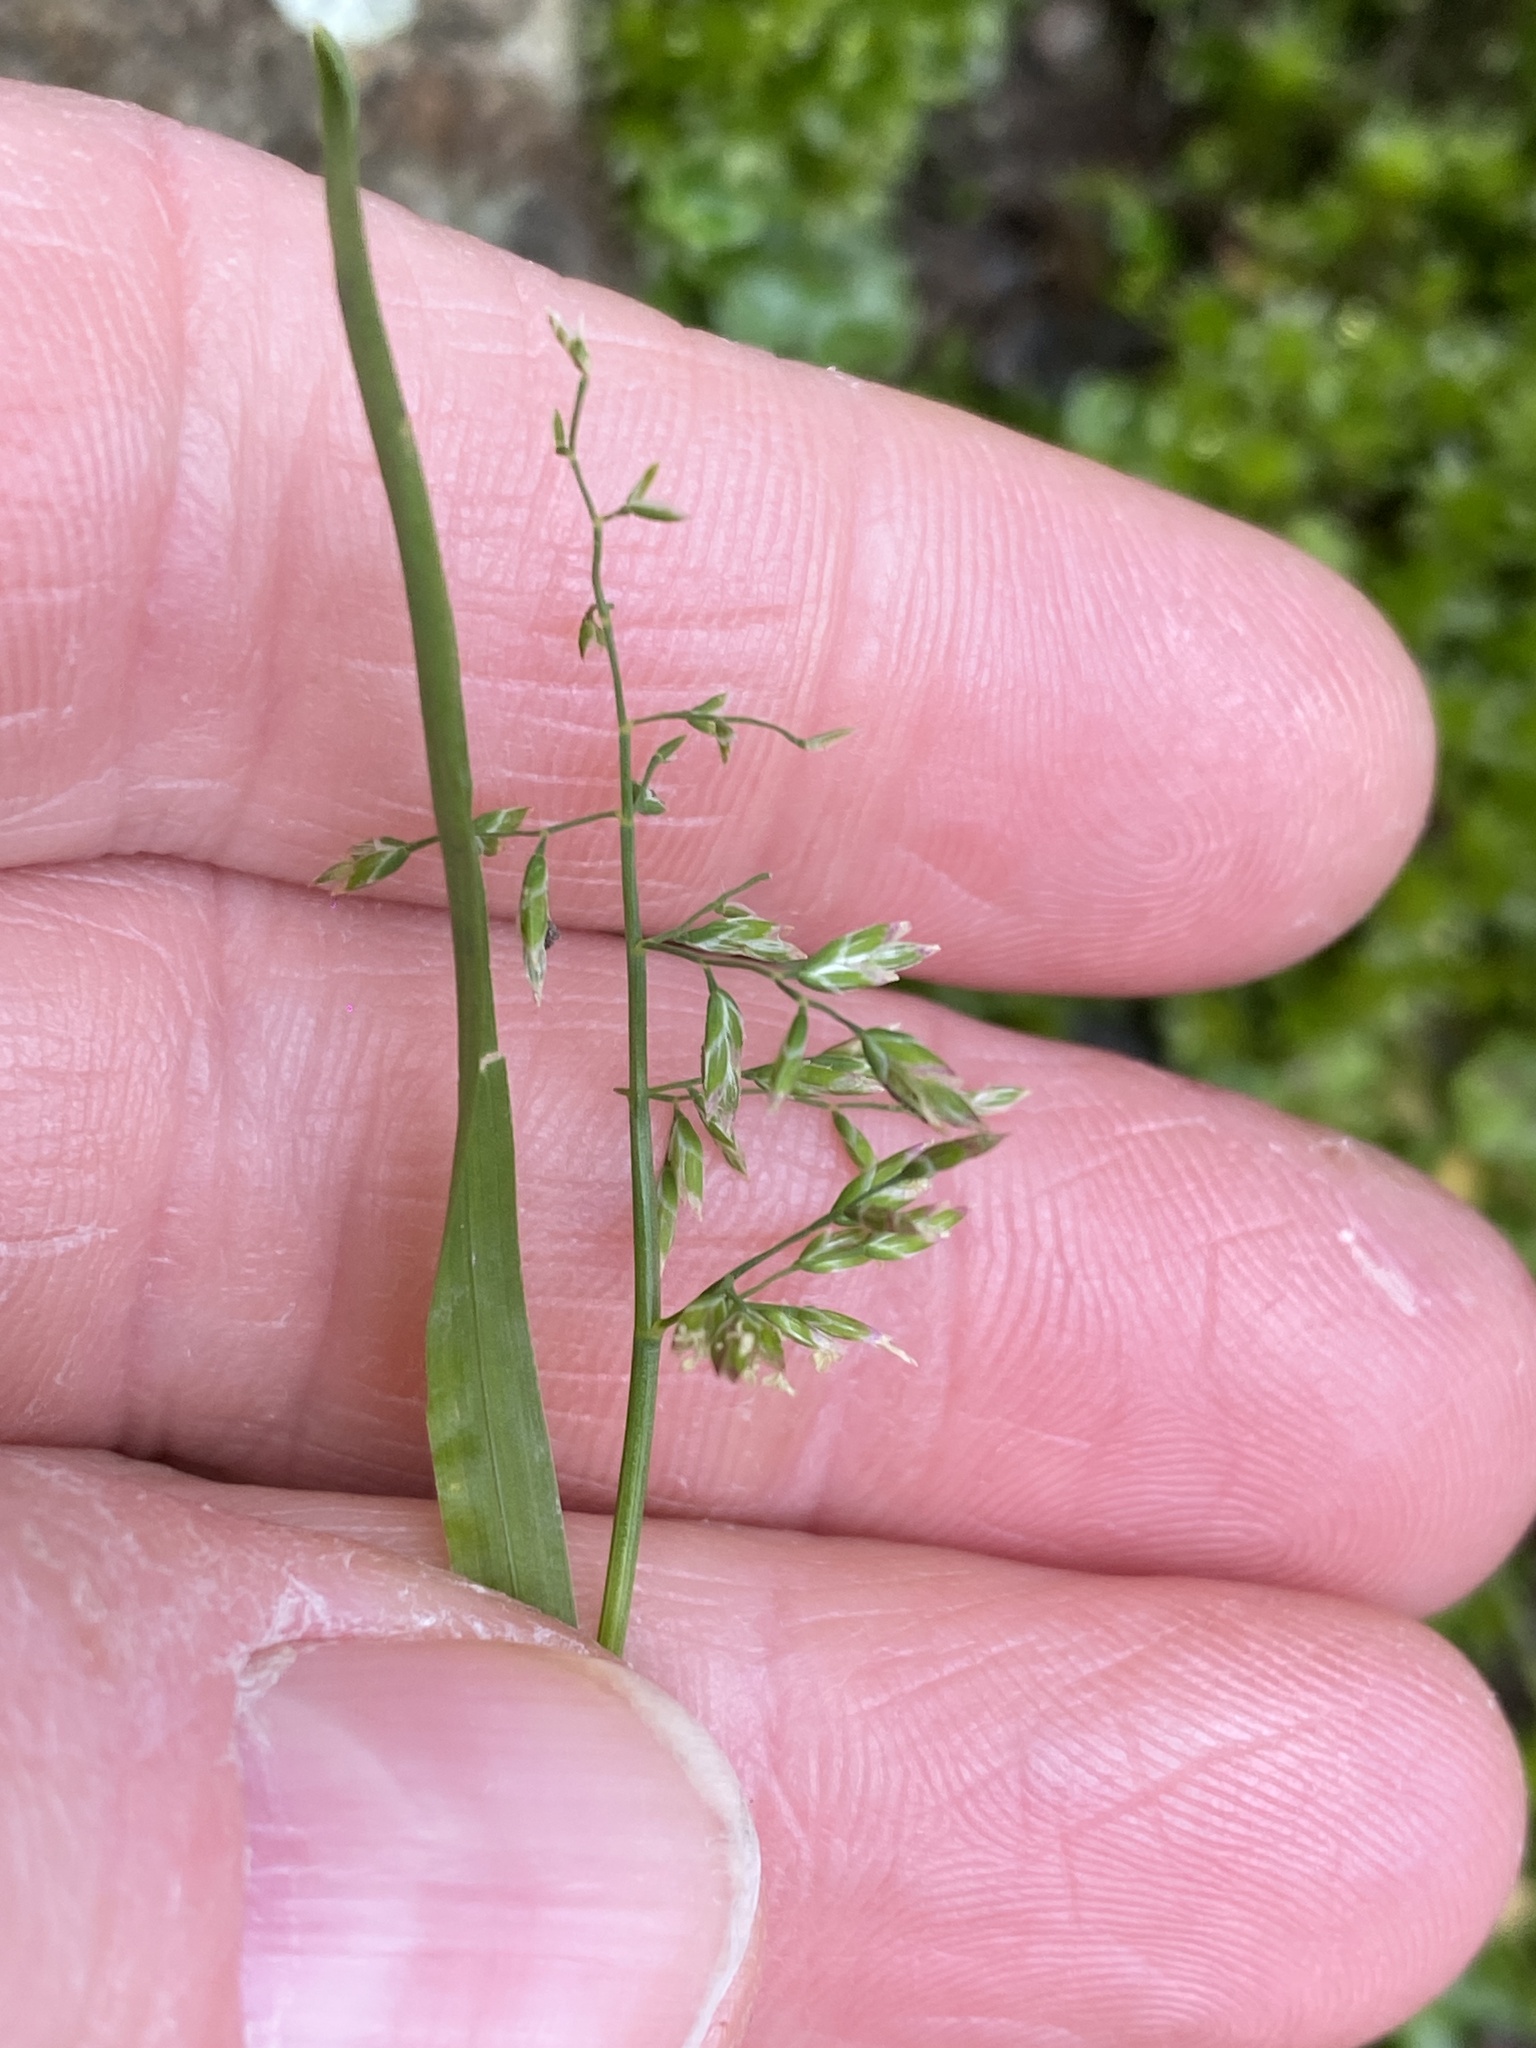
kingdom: Plantae
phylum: Tracheophyta
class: Liliopsida
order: Poales
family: Poaceae
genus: Poa
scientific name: Poa annua
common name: Annual bluegrass
